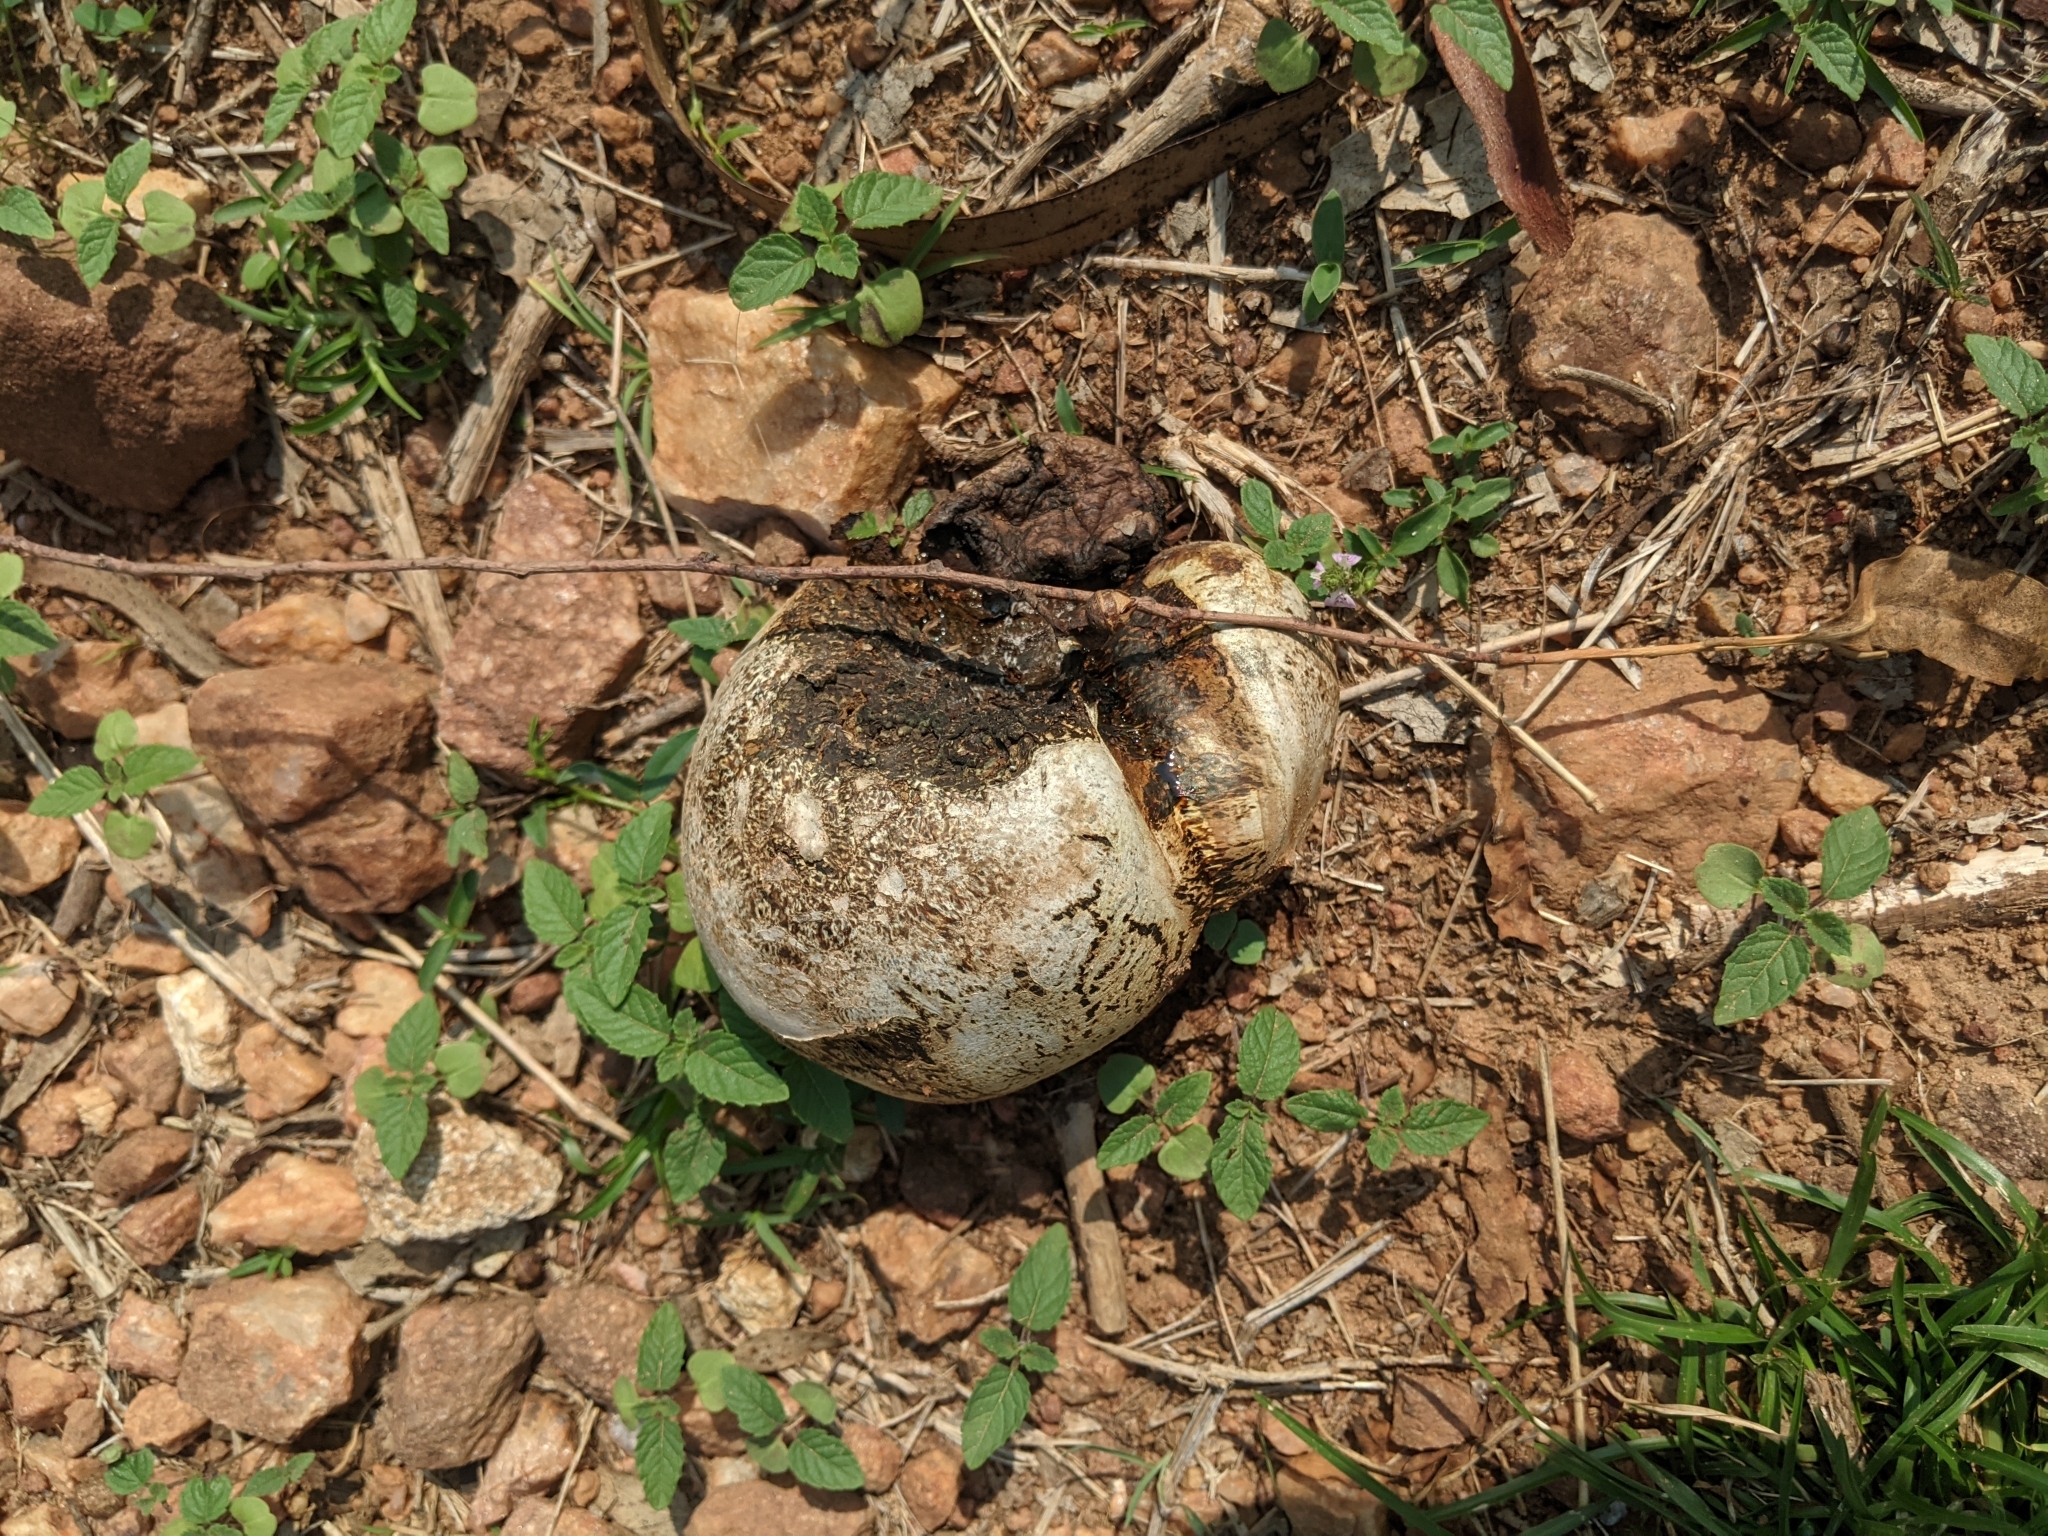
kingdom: Fungi
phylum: Basidiomycota
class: Agaricomycetes
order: Boletales
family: Sclerodermataceae
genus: Pisolithus
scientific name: Pisolithus arhizus
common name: Dyeball
